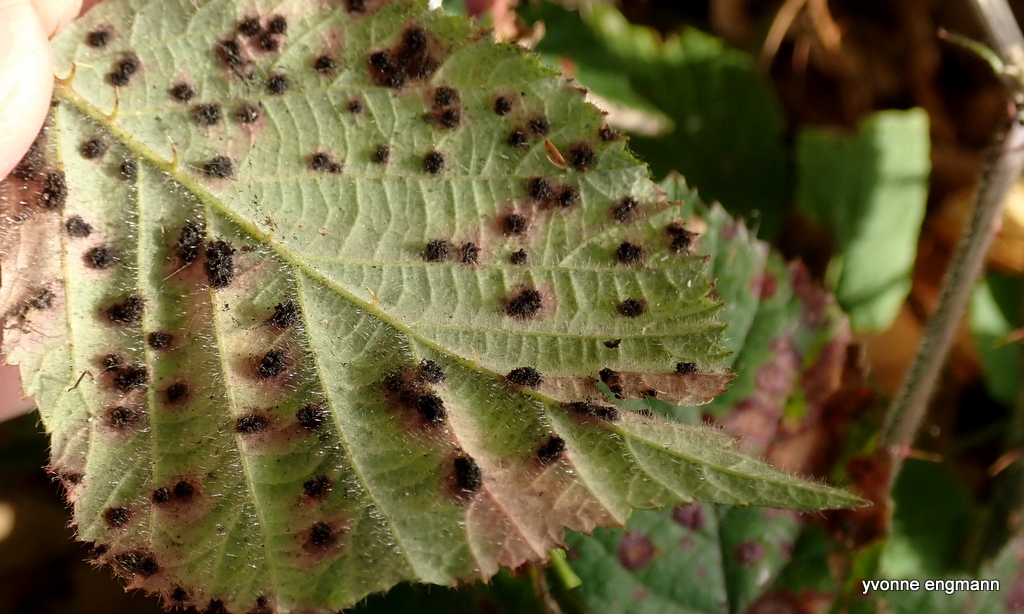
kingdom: Fungi
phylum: Basidiomycota
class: Pucciniomycetes
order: Pucciniales
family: Phragmidiaceae
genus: Phragmidium
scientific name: Phragmidium violaceum
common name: Violet bramble rust
